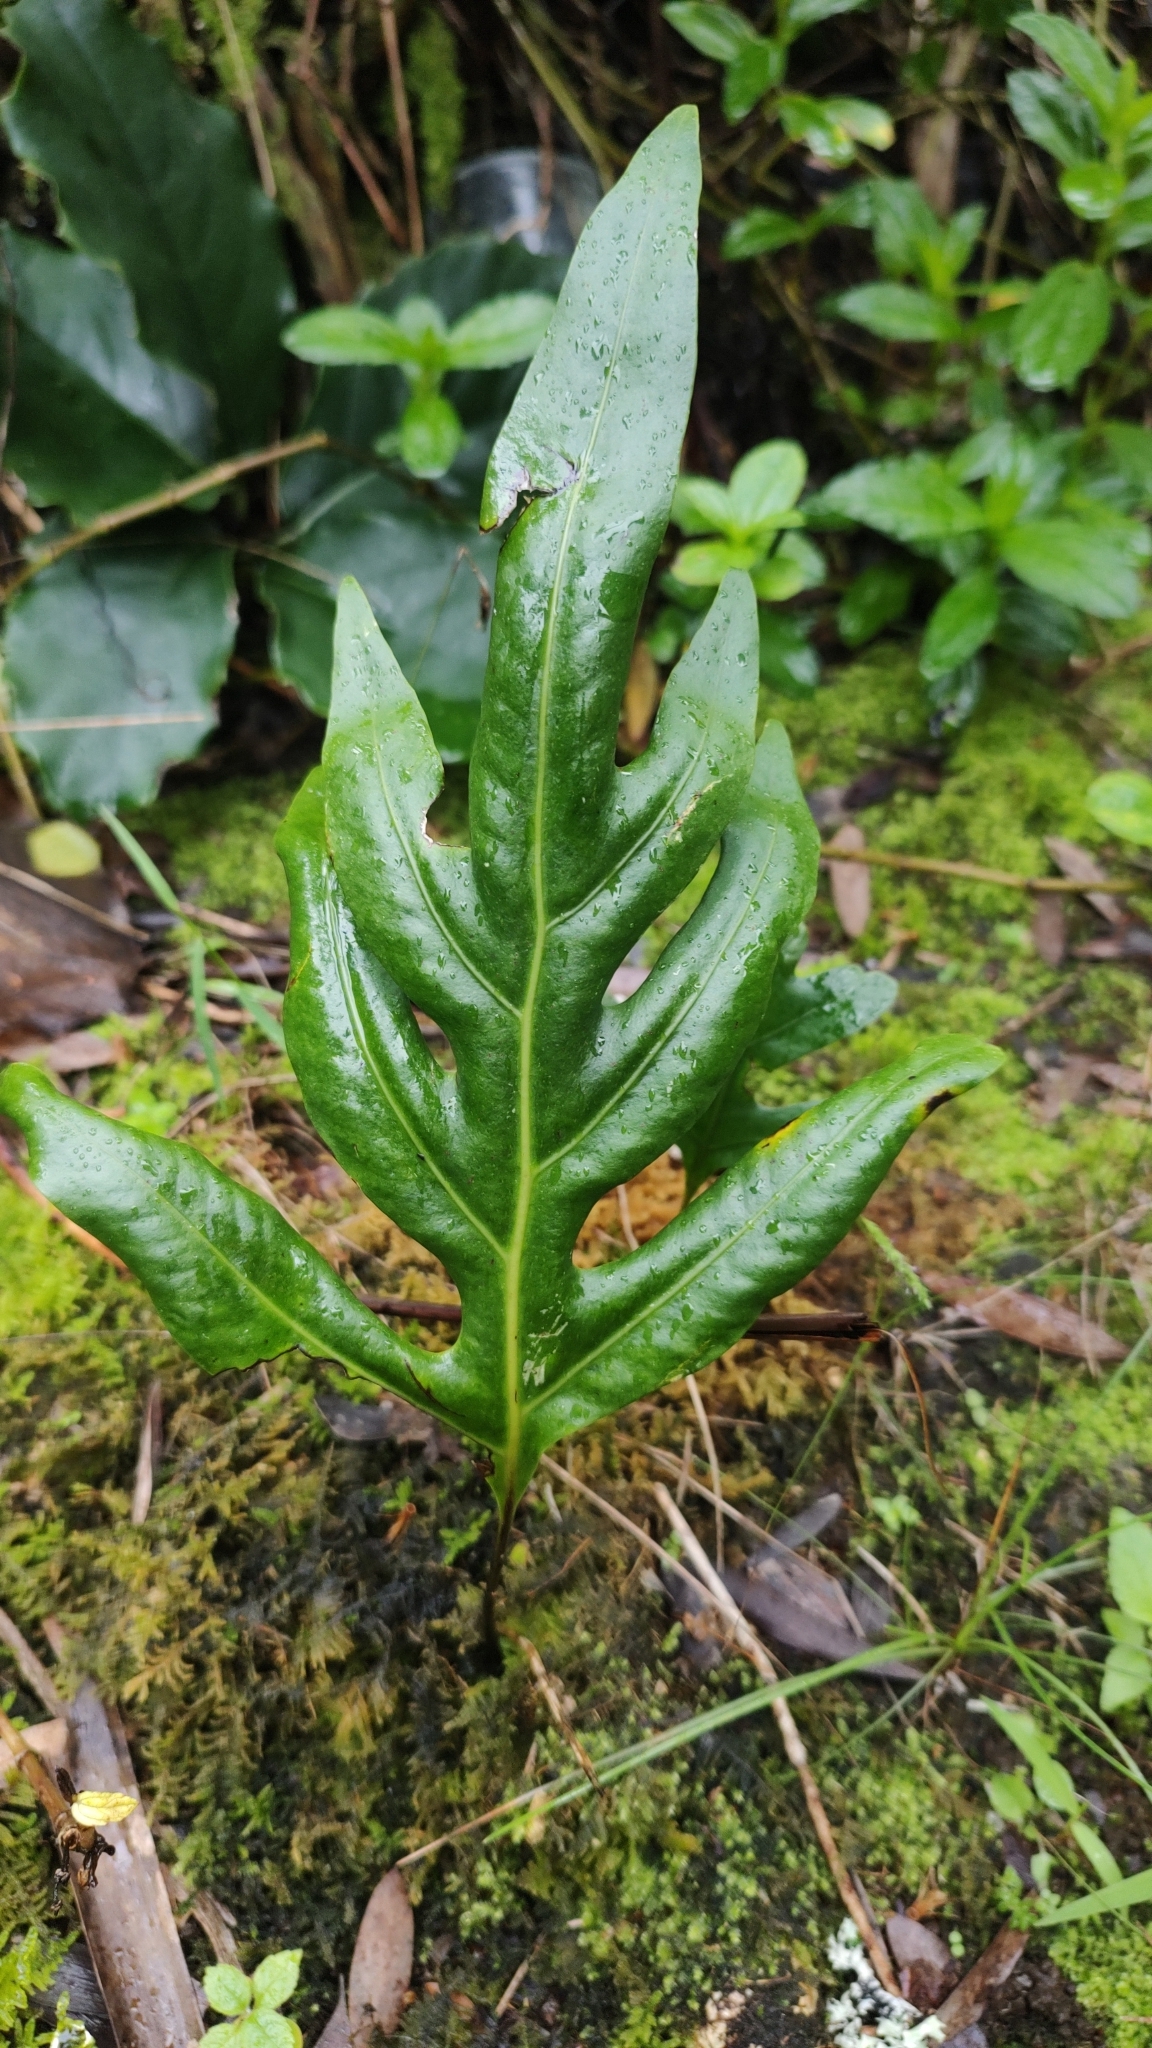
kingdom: Plantae
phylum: Tracheophyta
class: Polypodiopsida
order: Polypodiales
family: Polypodiaceae
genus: Microsorum
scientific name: Microsorum grossum
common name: Musk fern
